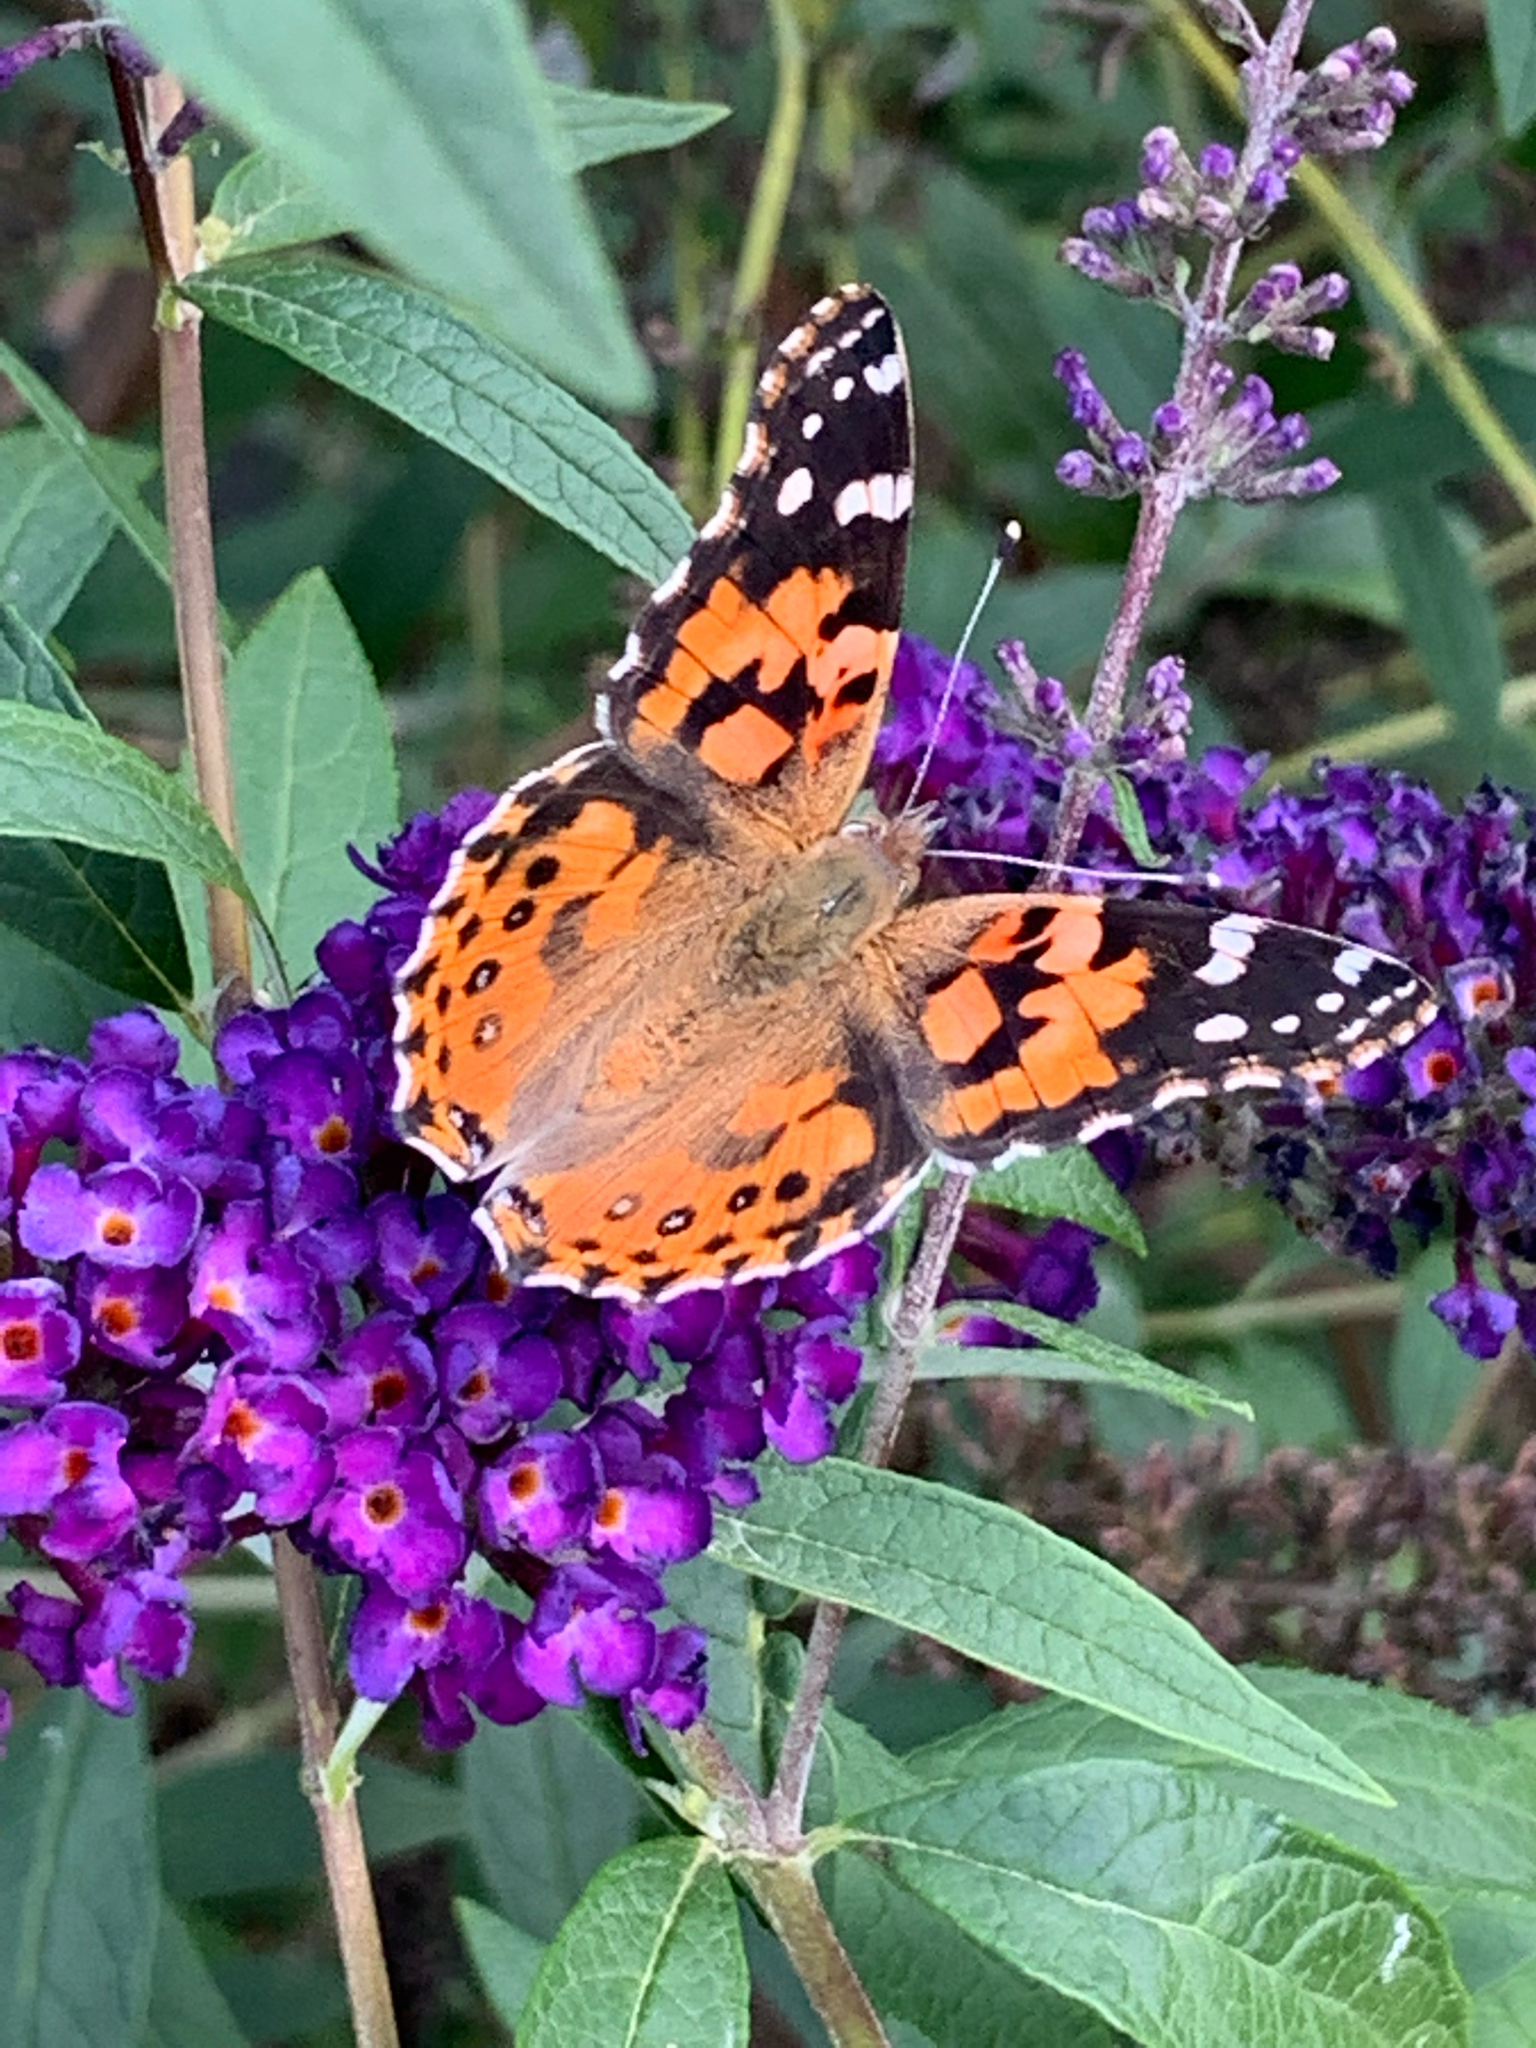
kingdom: Animalia
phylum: Arthropoda
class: Insecta
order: Lepidoptera
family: Nymphalidae
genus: Vanessa
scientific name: Vanessa cardui
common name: Painted lady
